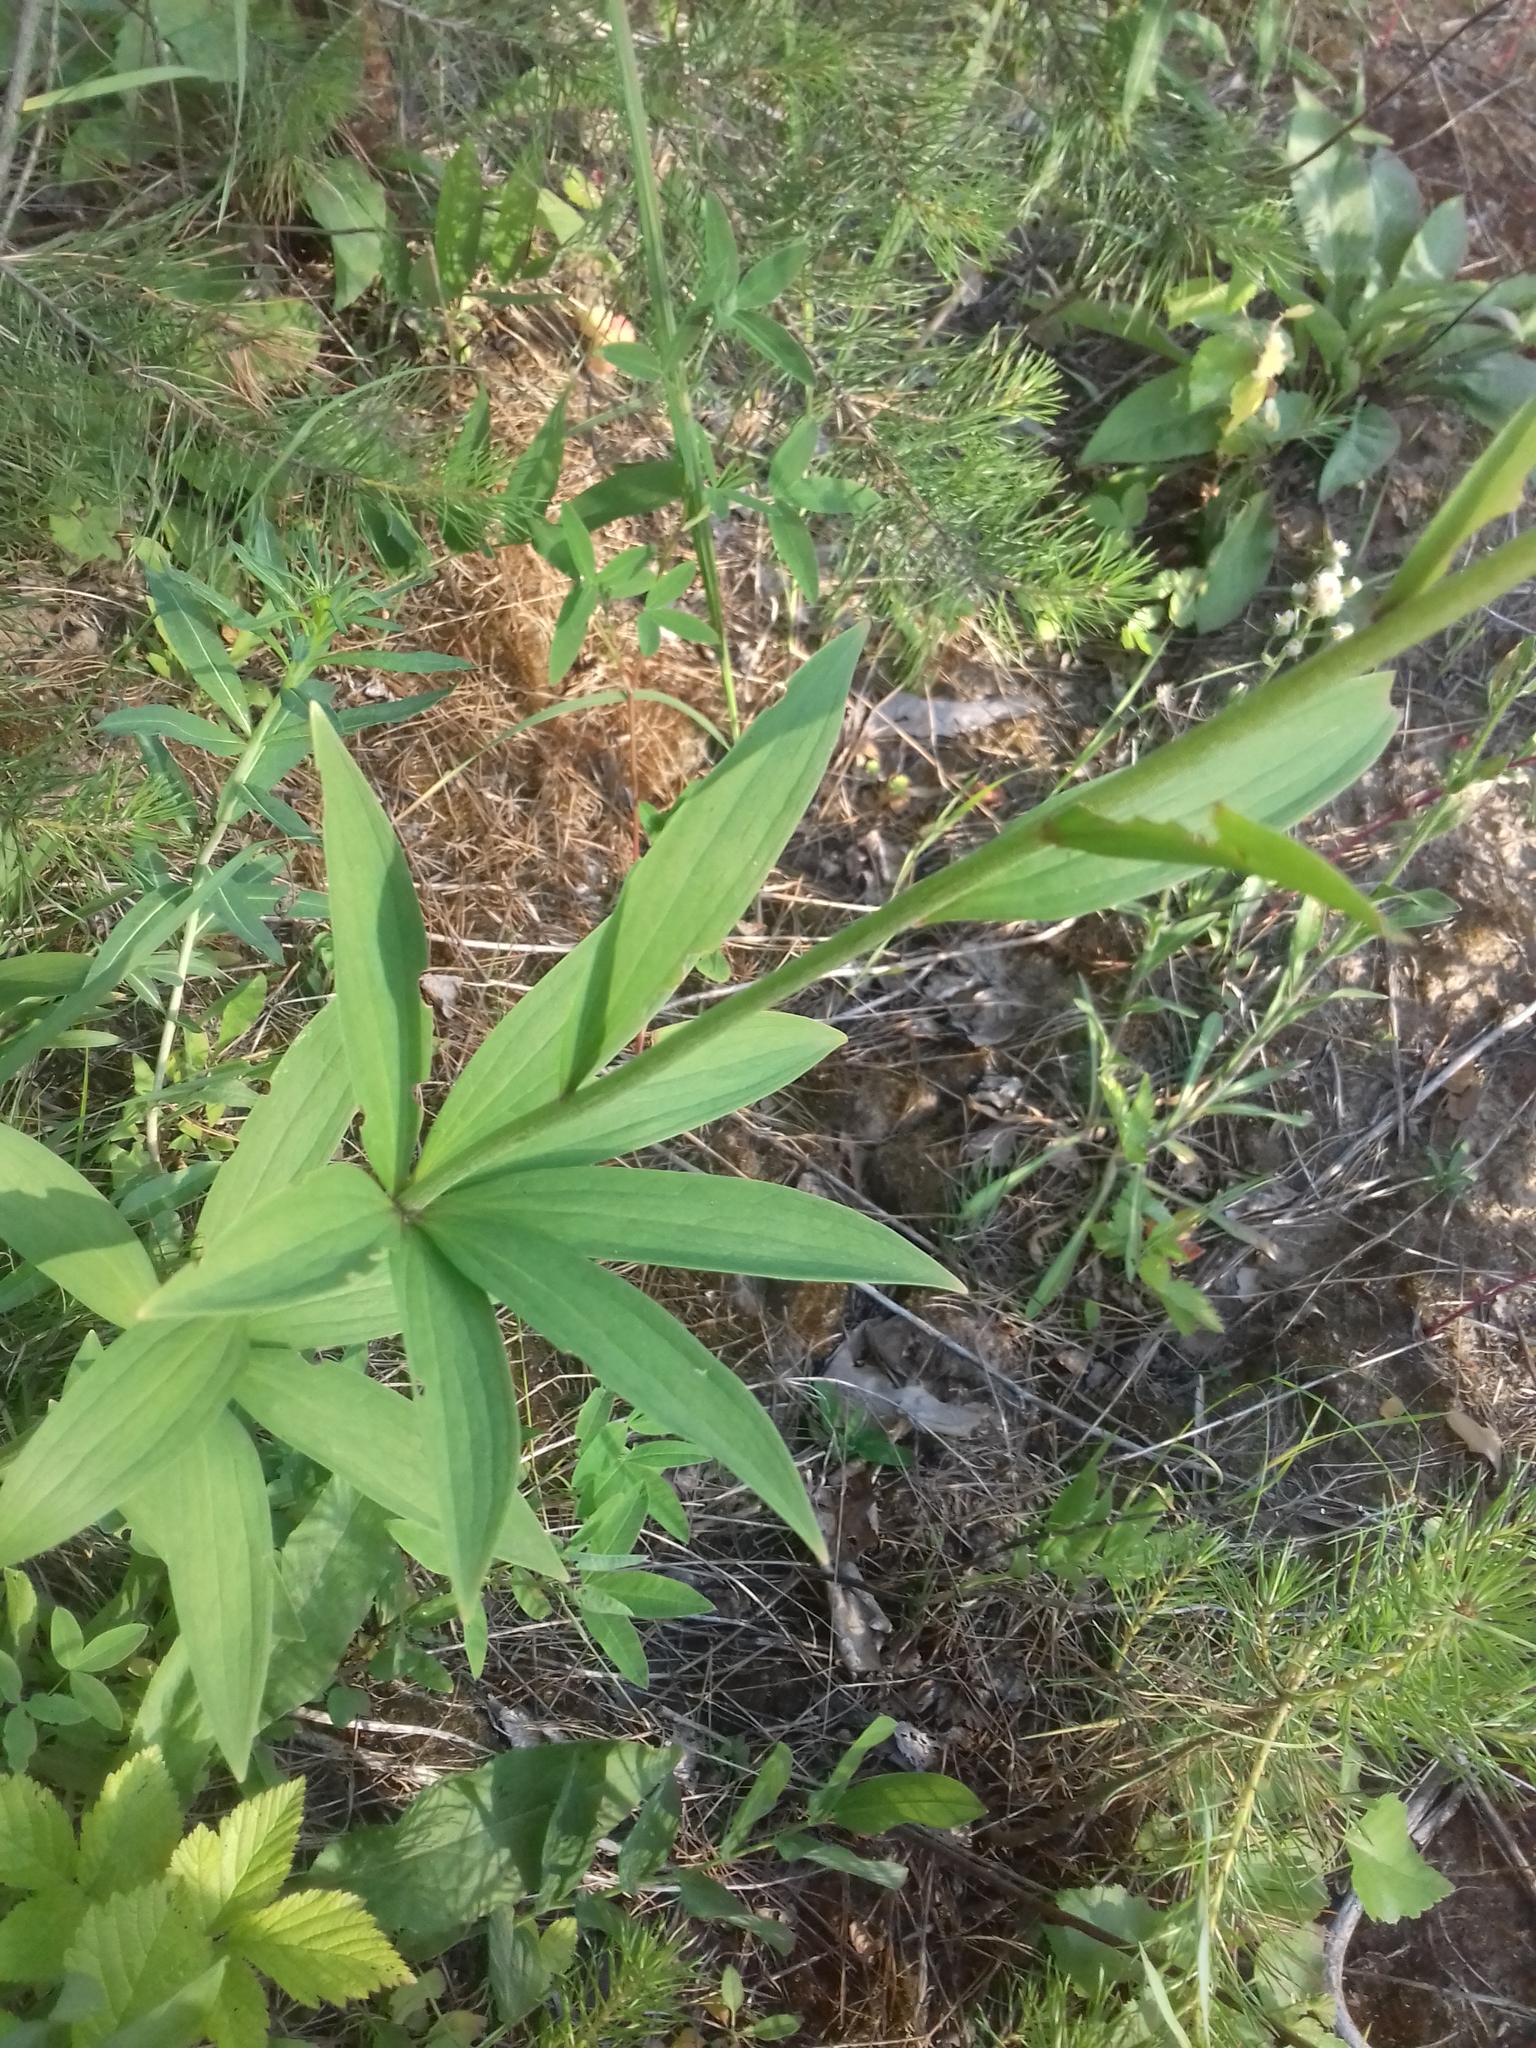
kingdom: Plantae
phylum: Tracheophyta
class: Liliopsida
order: Liliales
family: Liliaceae
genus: Lilium
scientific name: Lilium martagon
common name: Martagon lily
